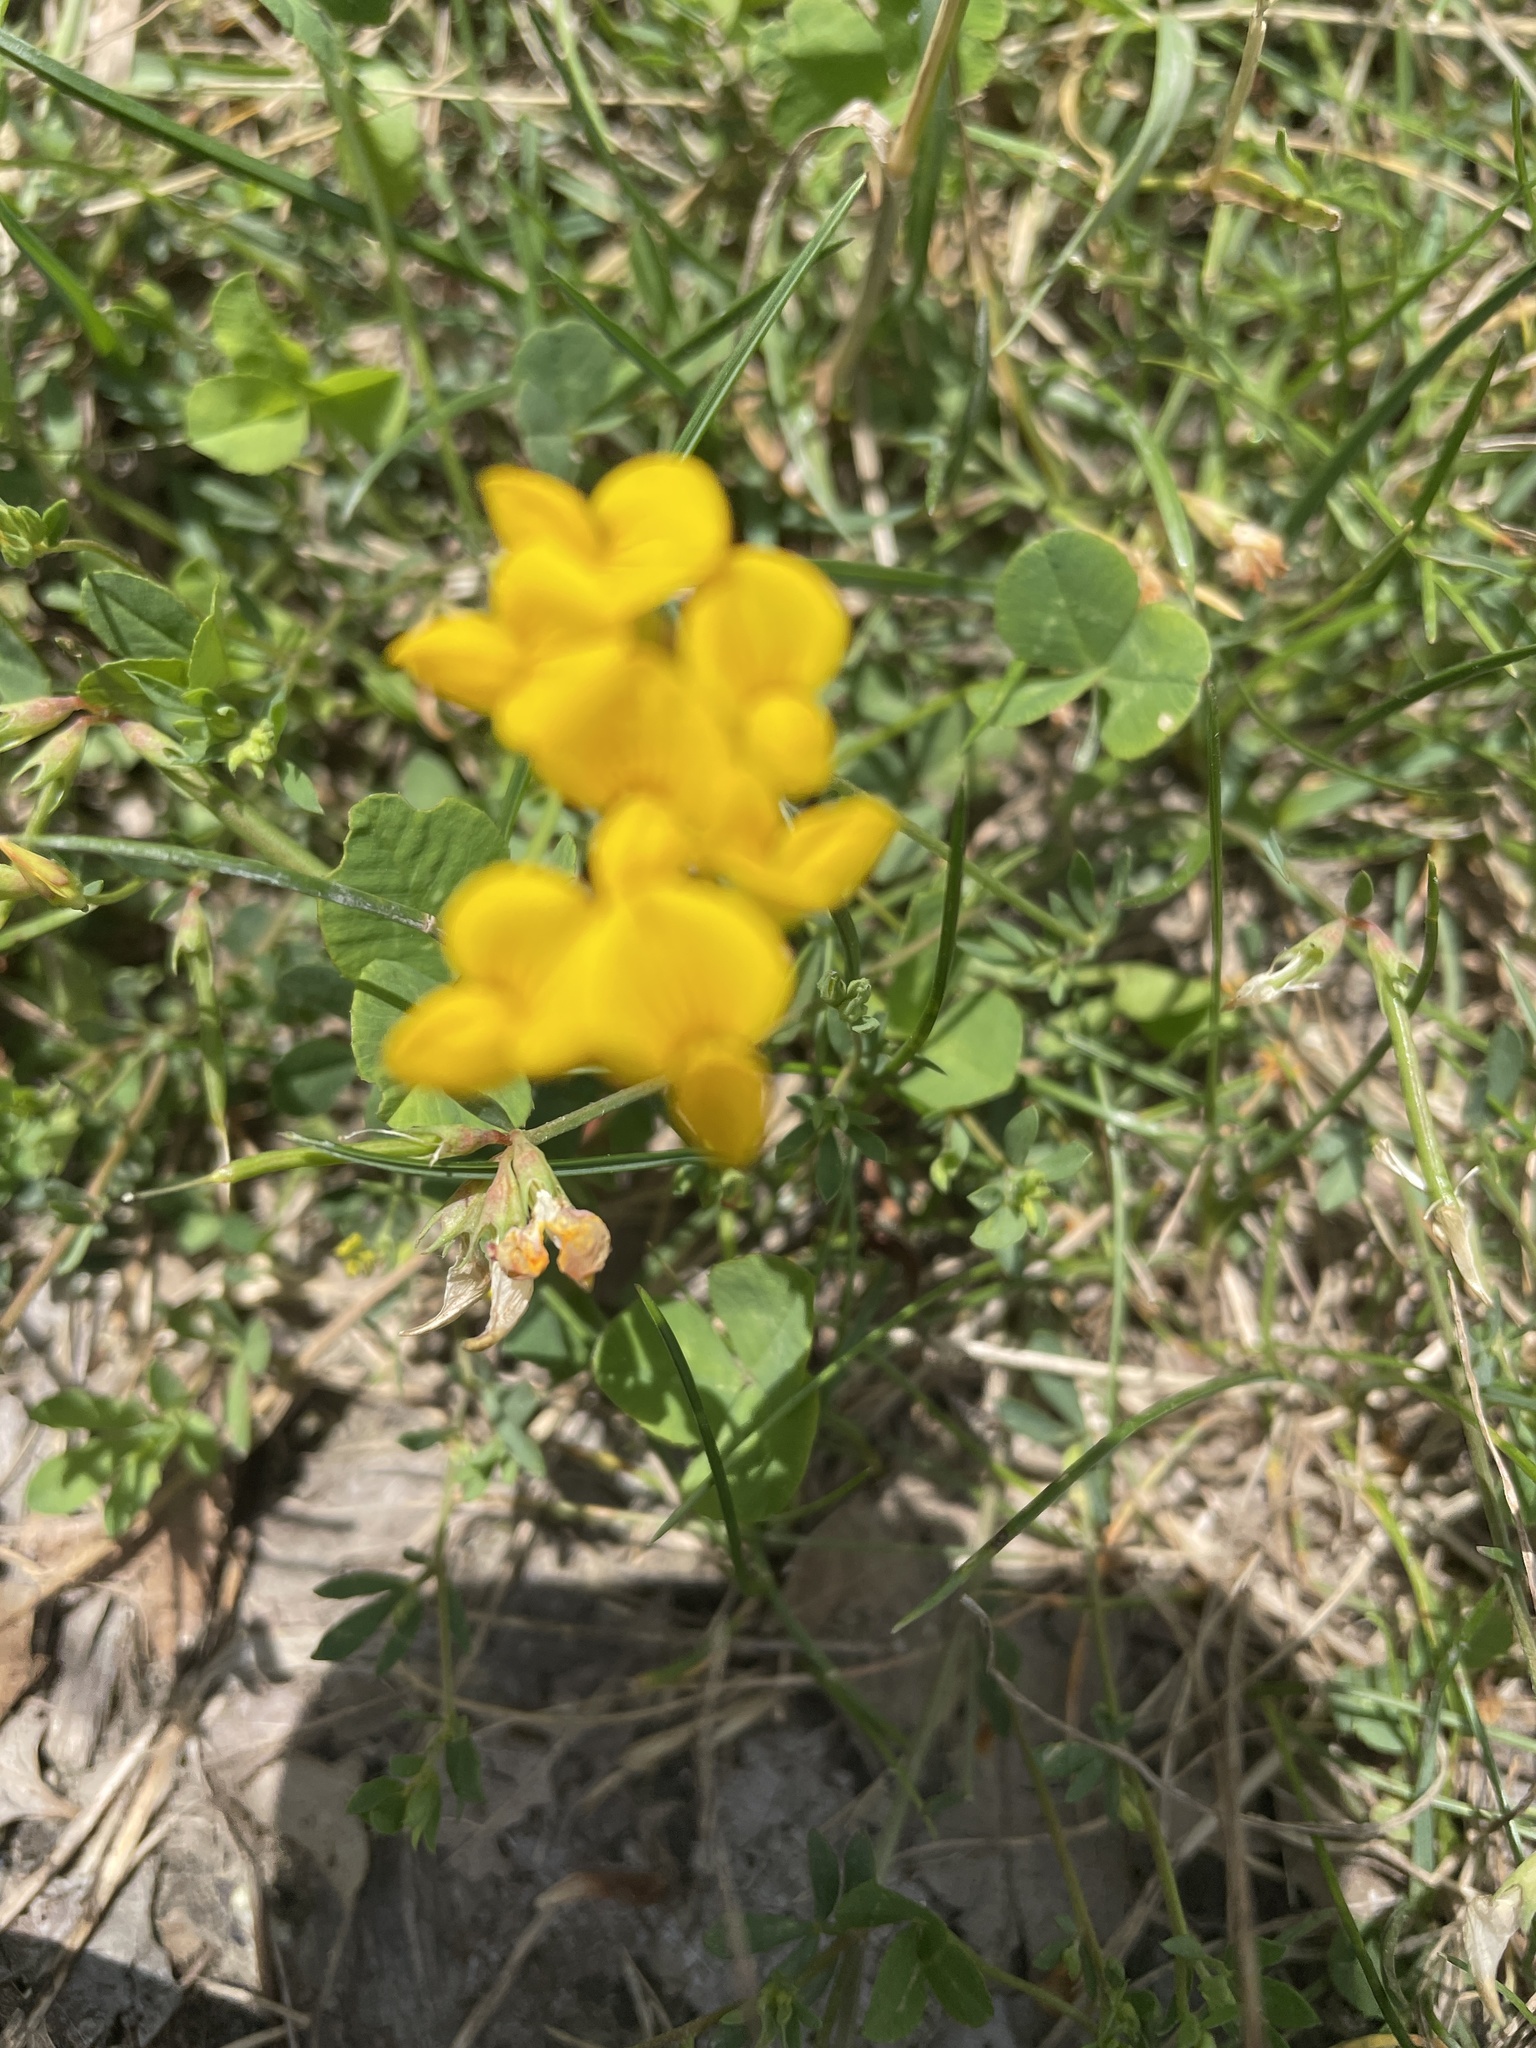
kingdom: Plantae
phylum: Tracheophyta
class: Magnoliopsida
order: Fabales
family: Fabaceae
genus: Lotus
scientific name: Lotus corniculatus
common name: Common bird's-foot-trefoil
